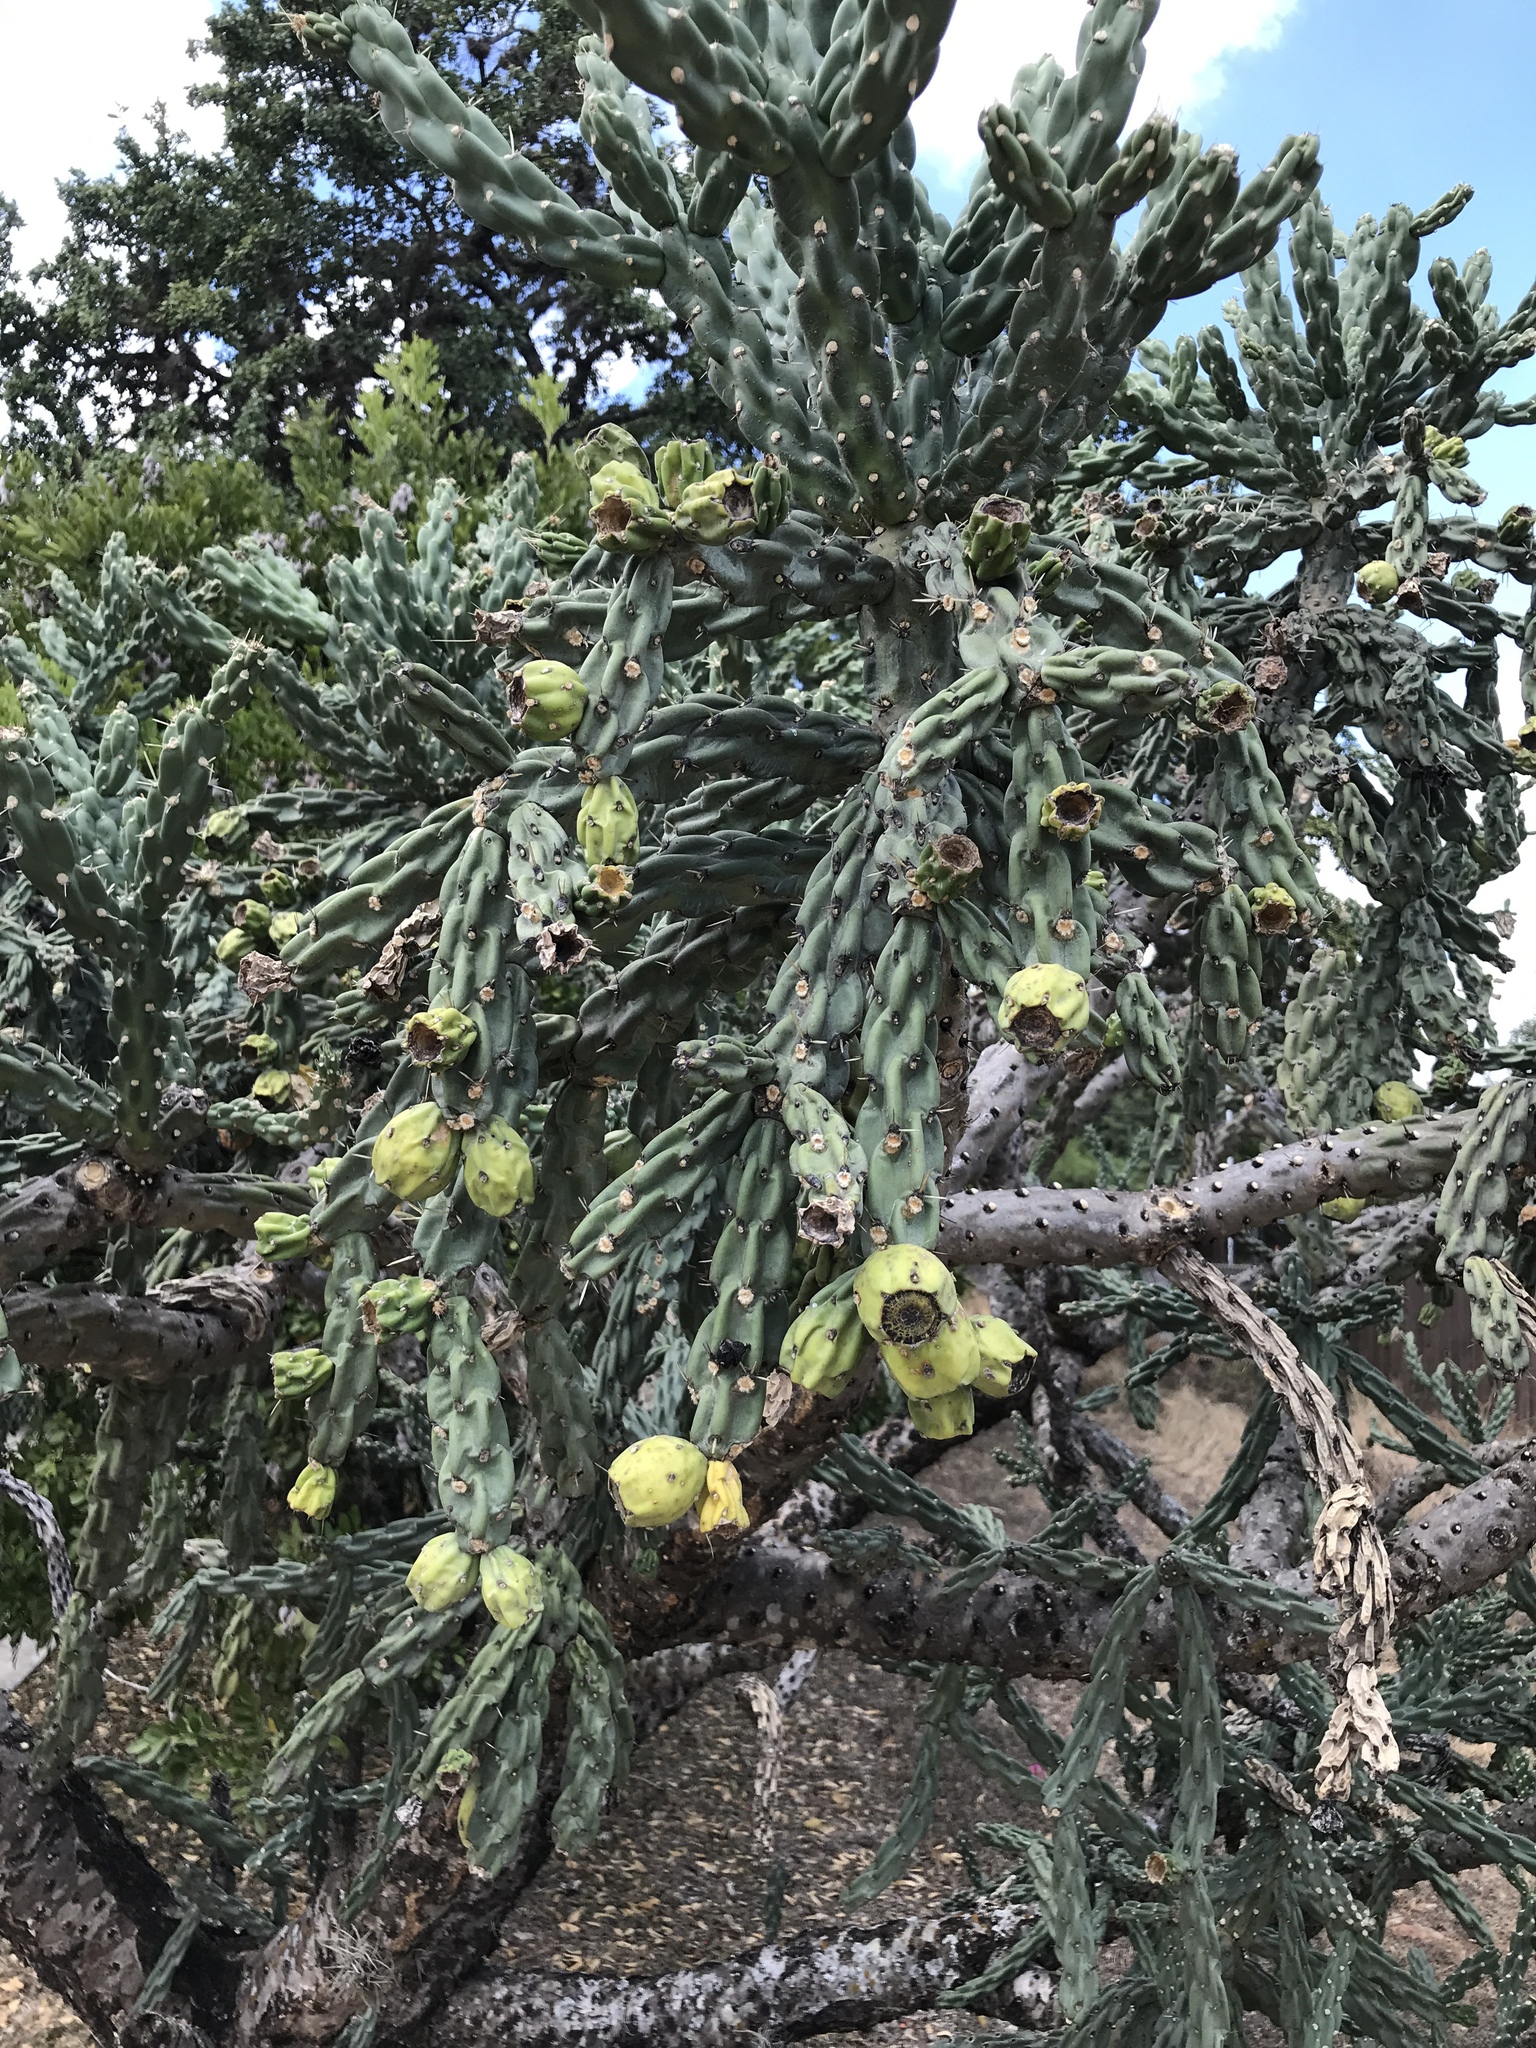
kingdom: Plantae
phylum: Tracheophyta
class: Magnoliopsida
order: Caryophyllales
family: Cactaceae
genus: Cylindropuntia
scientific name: Cylindropuntia imbricata
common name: Candelabrum cactus
